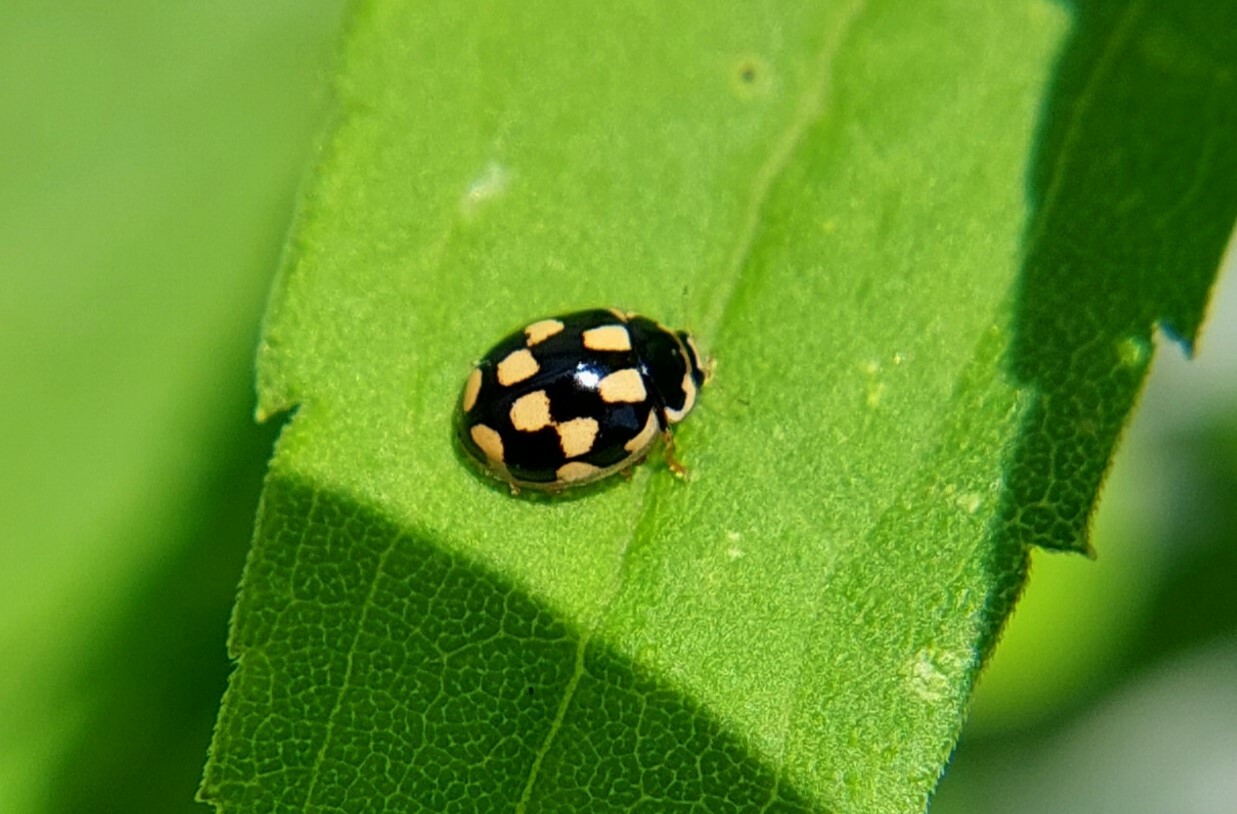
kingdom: Animalia
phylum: Arthropoda
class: Insecta
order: Coleoptera
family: Coccinellidae
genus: Propylaea
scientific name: Propylaea quatuordecimpunctata
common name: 14-spotted ladybird beetle
